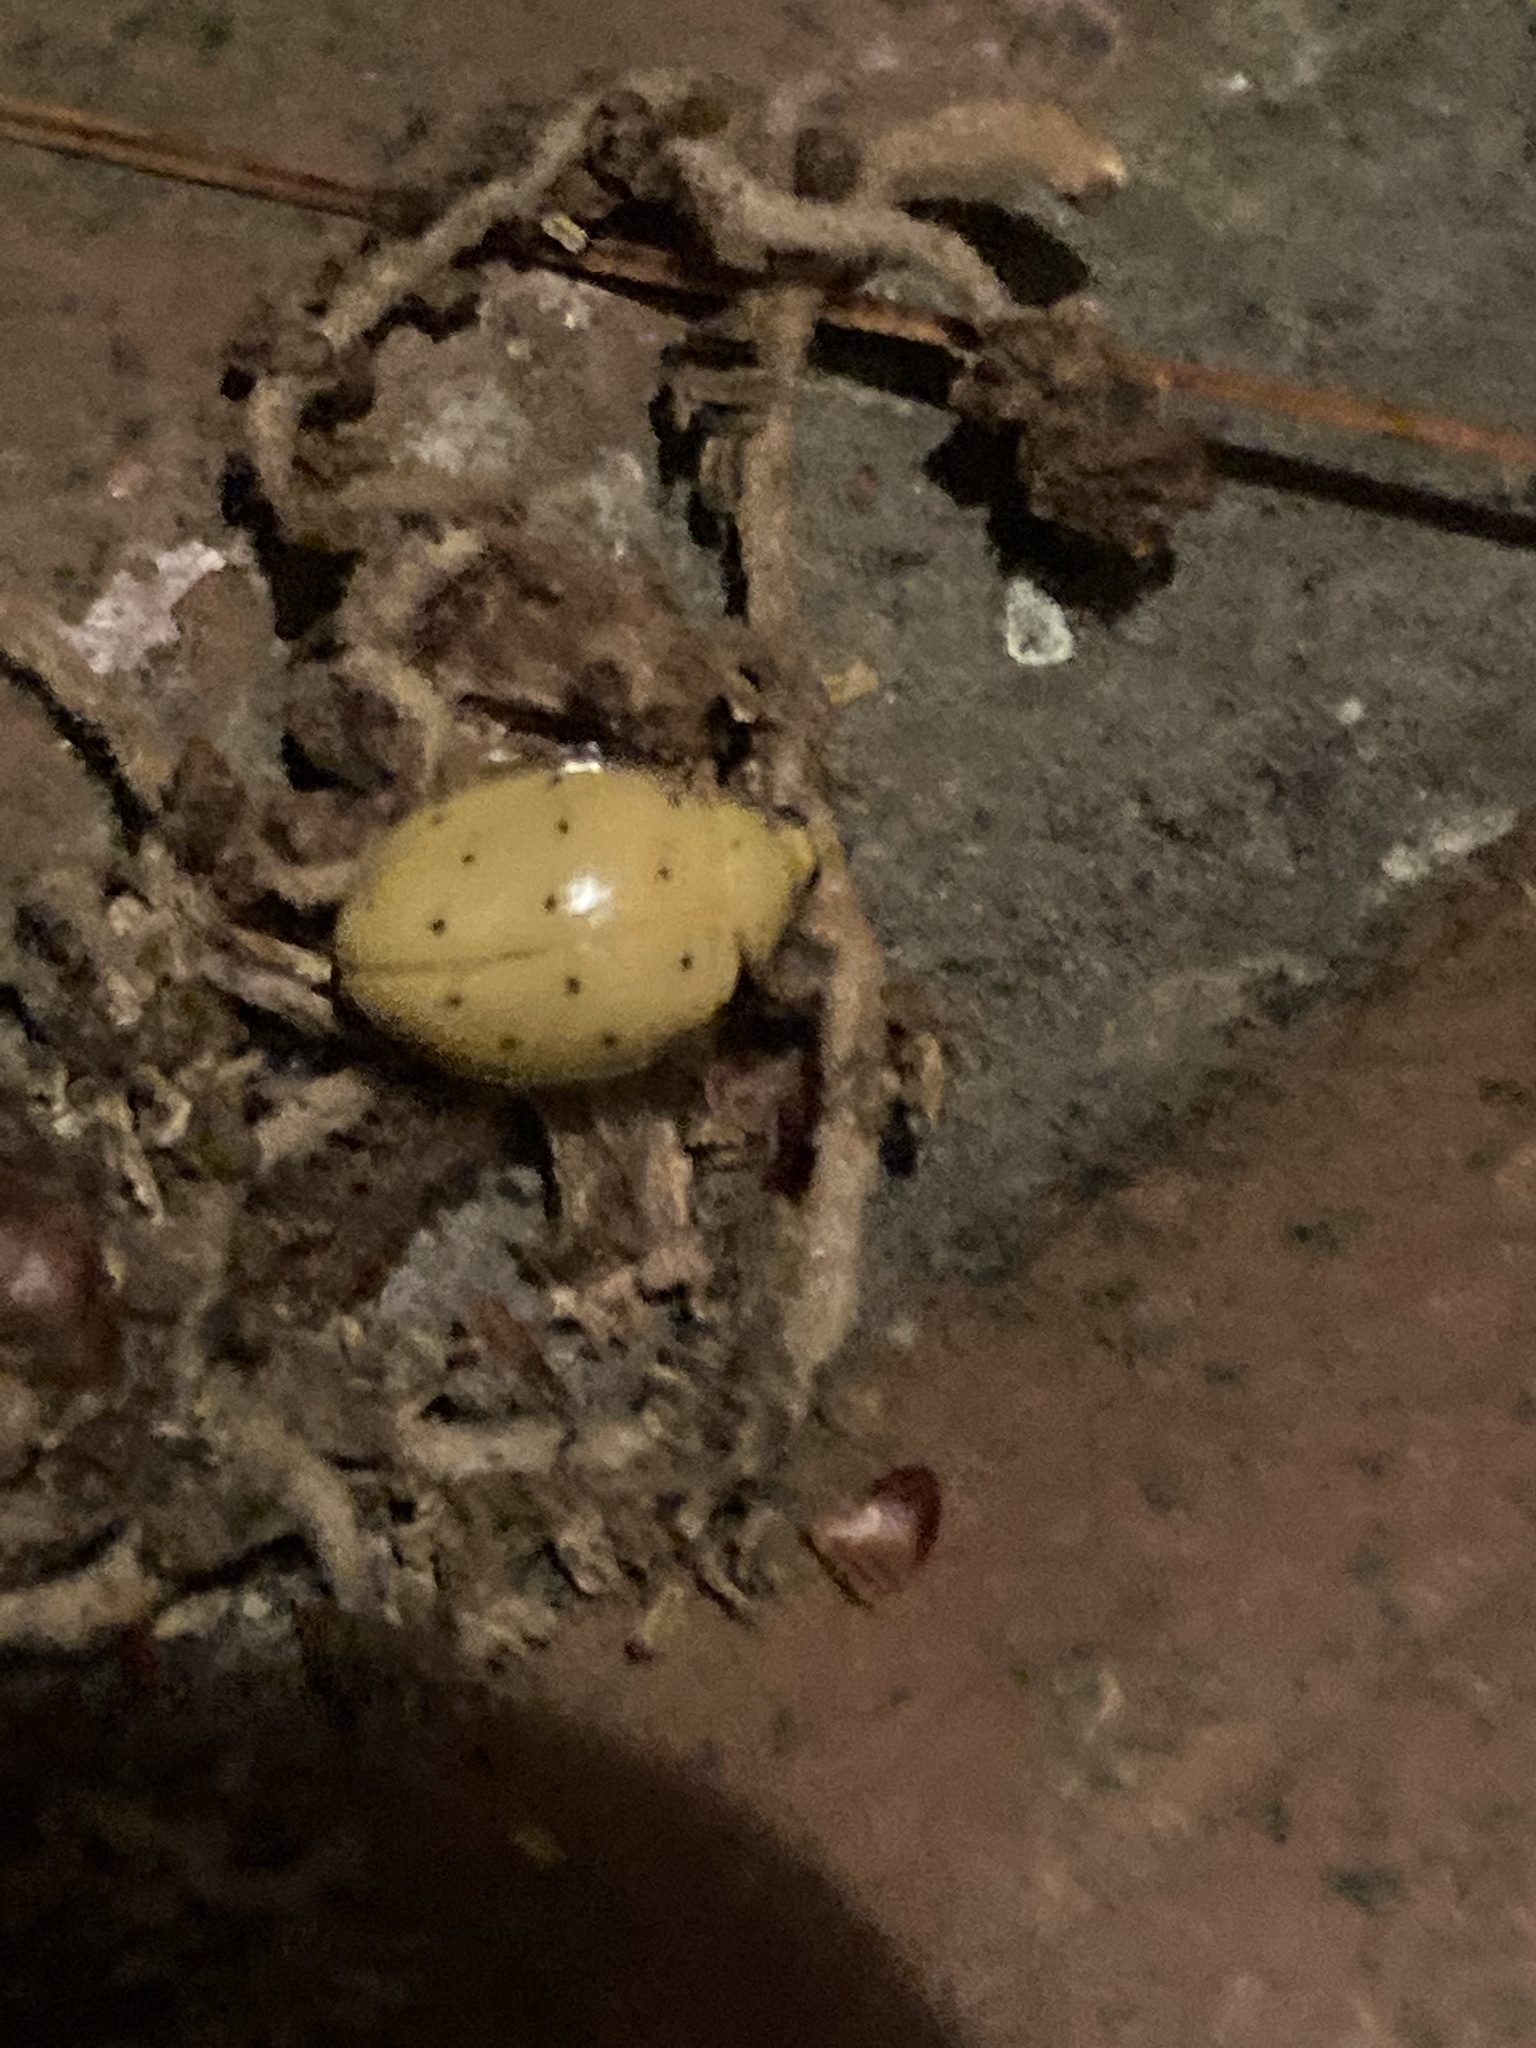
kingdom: Animalia
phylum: Arthropoda
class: Insecta
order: Coleoptera
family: Coccinellidae
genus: Neohalyzia
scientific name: Neohalyzia
